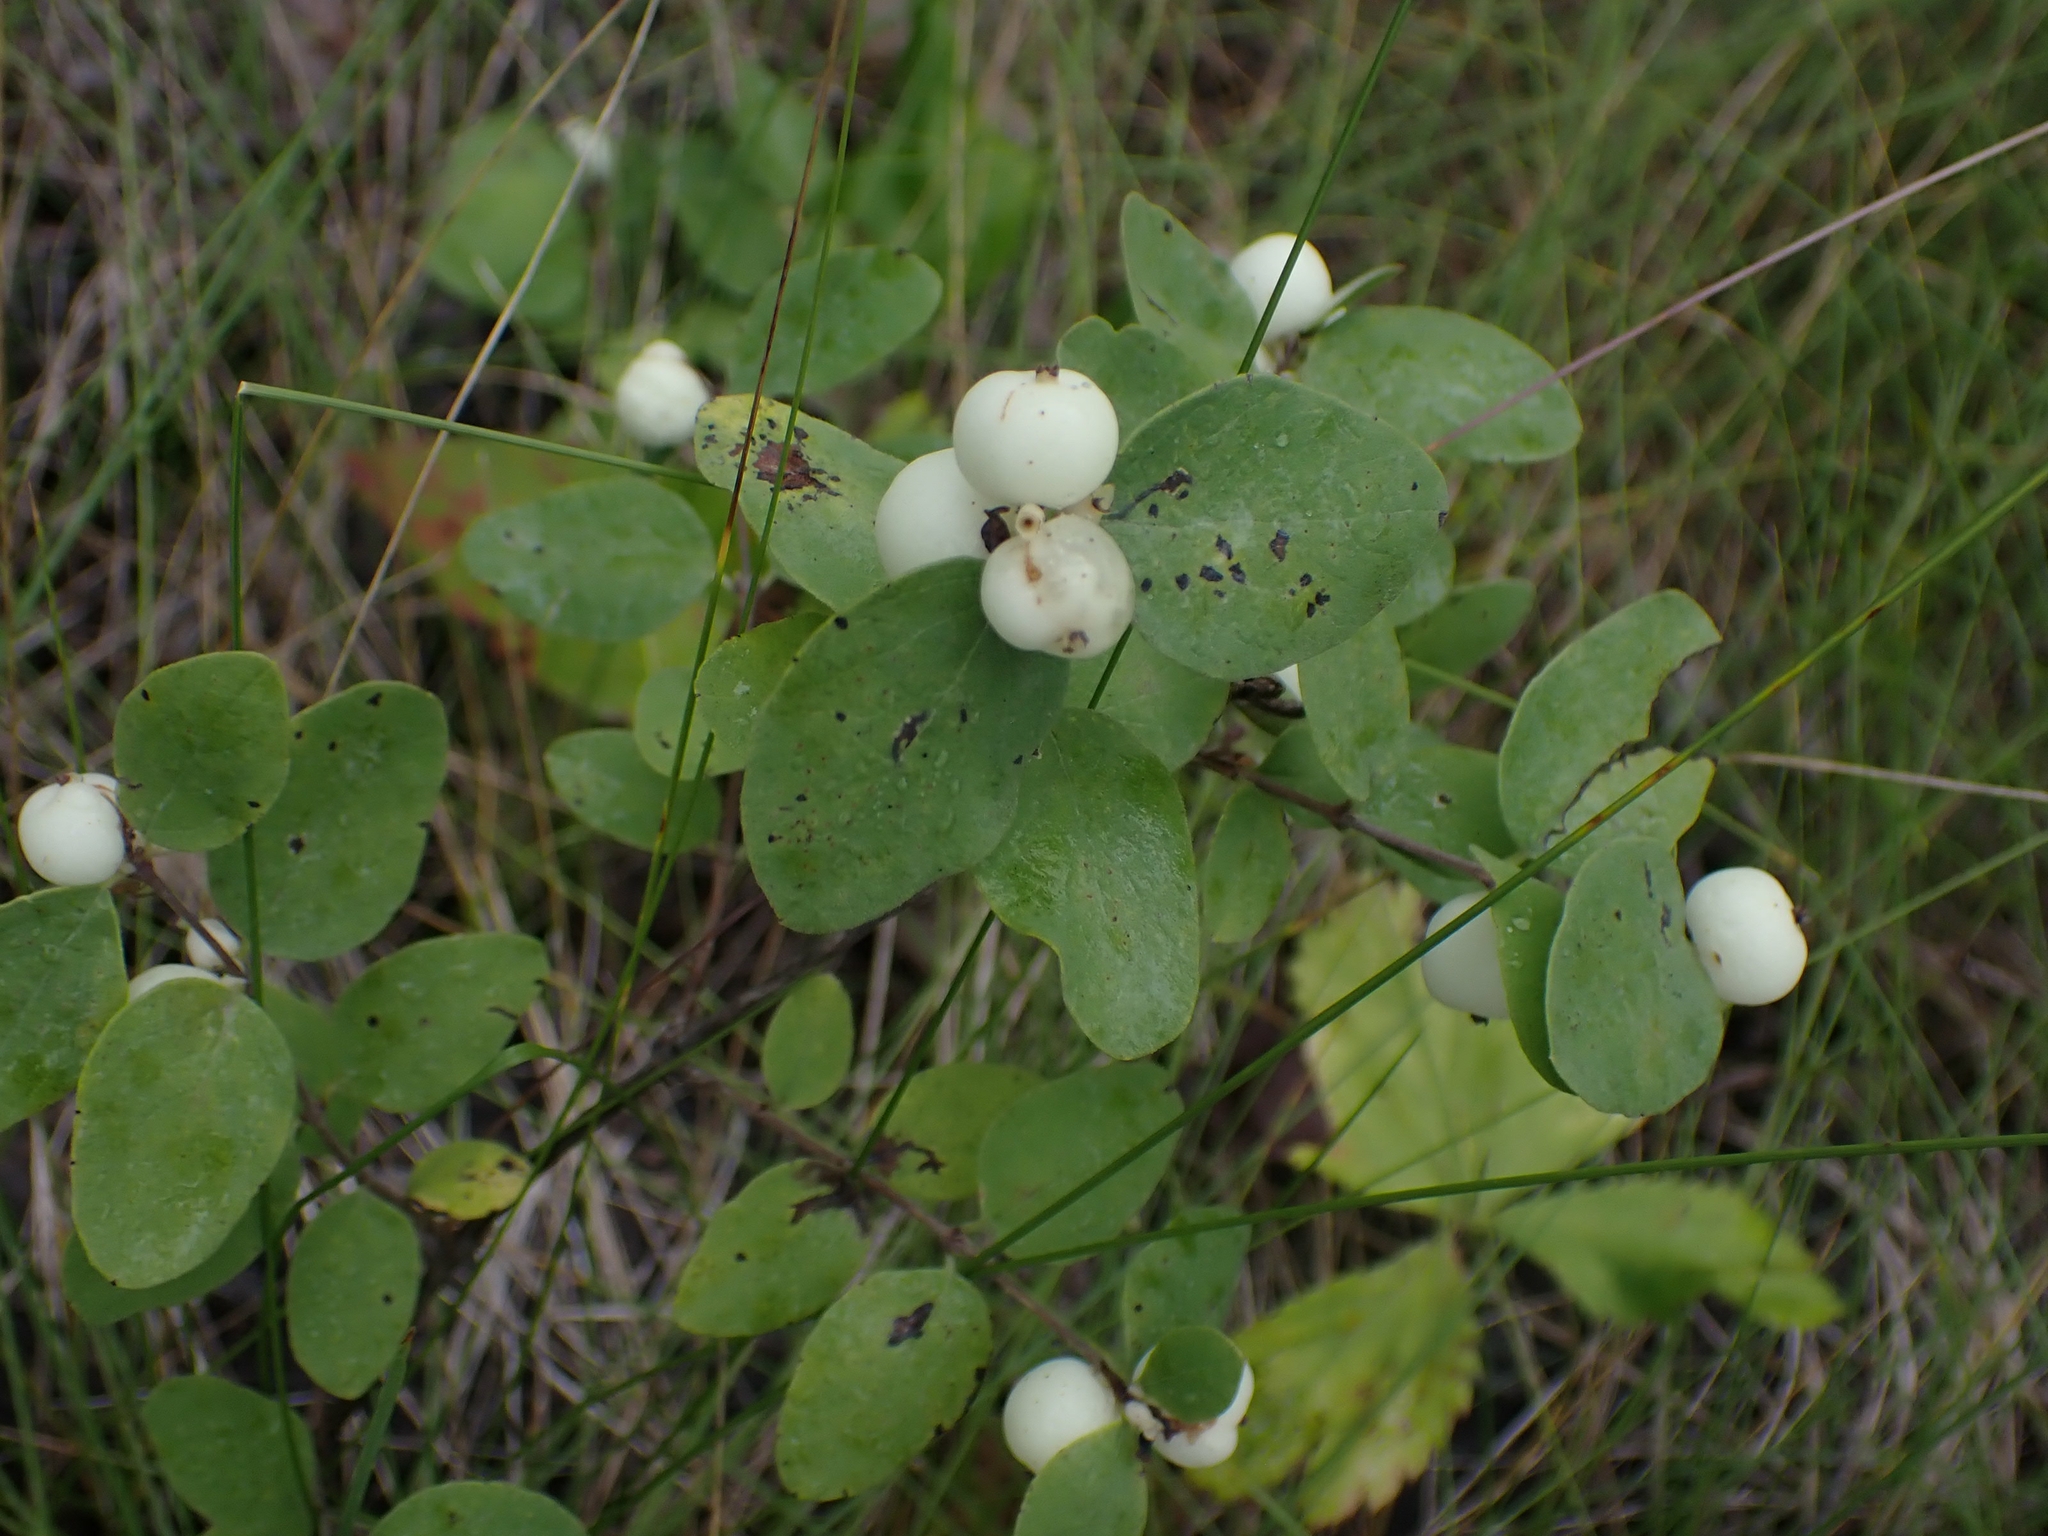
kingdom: Plantae
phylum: Tracheophyta
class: Magnoliopsida
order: Dipsacales
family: Caprifoliaceae
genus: Symphoricarpos
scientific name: Symphoricarpos albus
